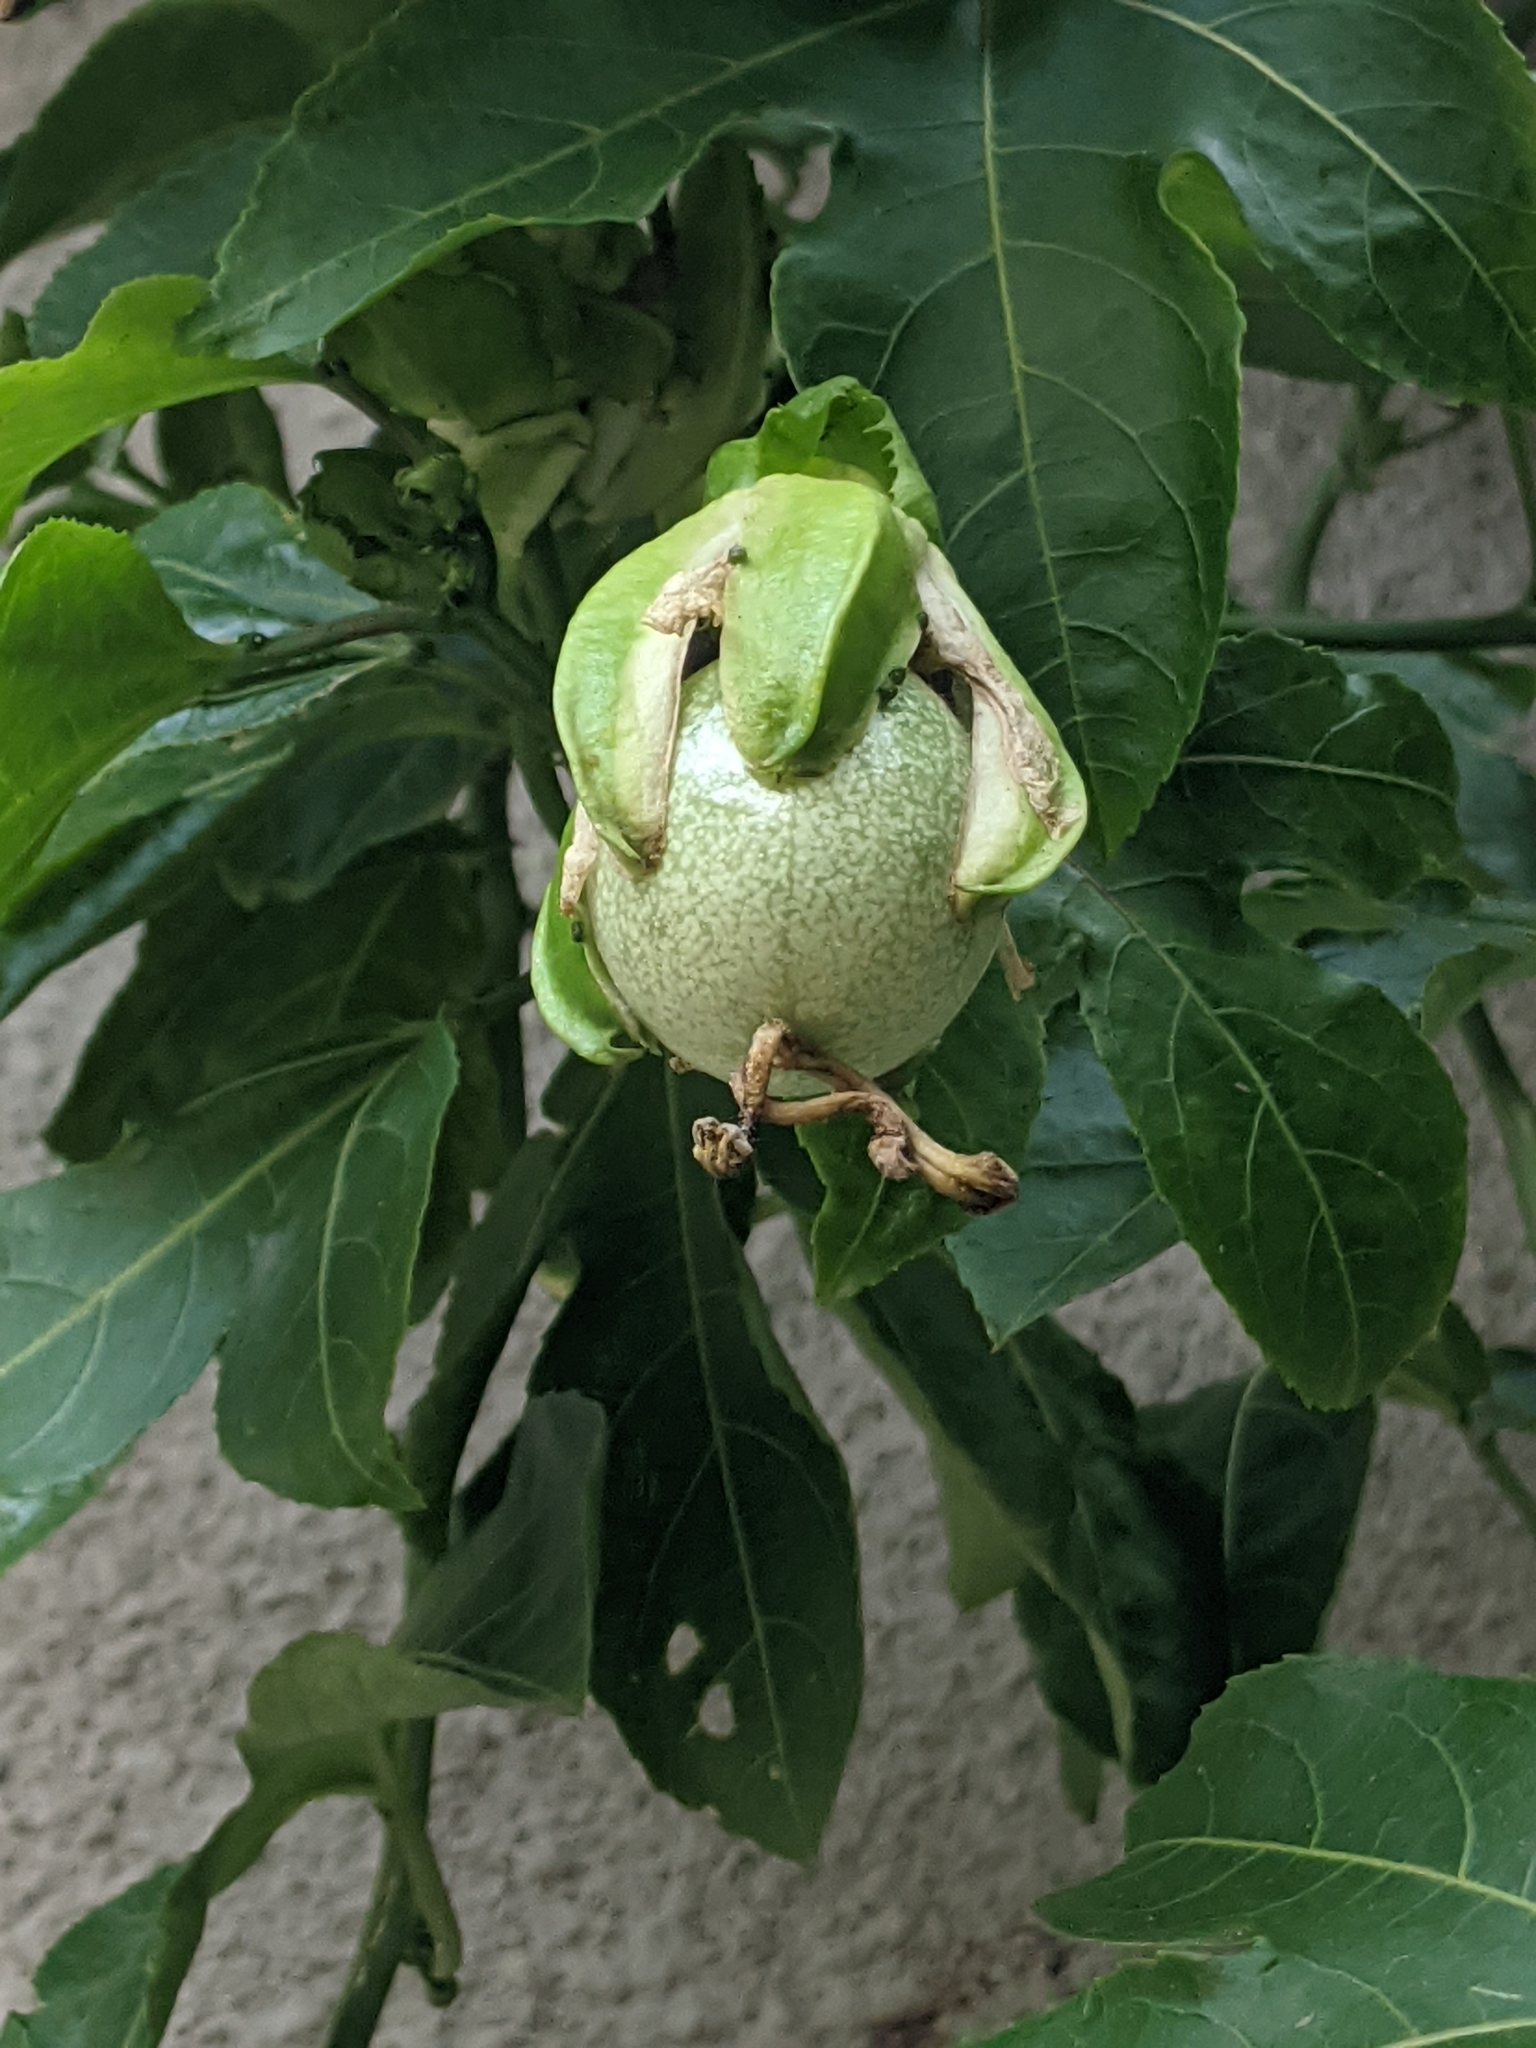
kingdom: Plantae
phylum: Tracheophyta
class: Magnoliopsida
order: Malpighiales
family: Passifloraceae
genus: Passiflora
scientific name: Passiflora edulis
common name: Purple granadilla
